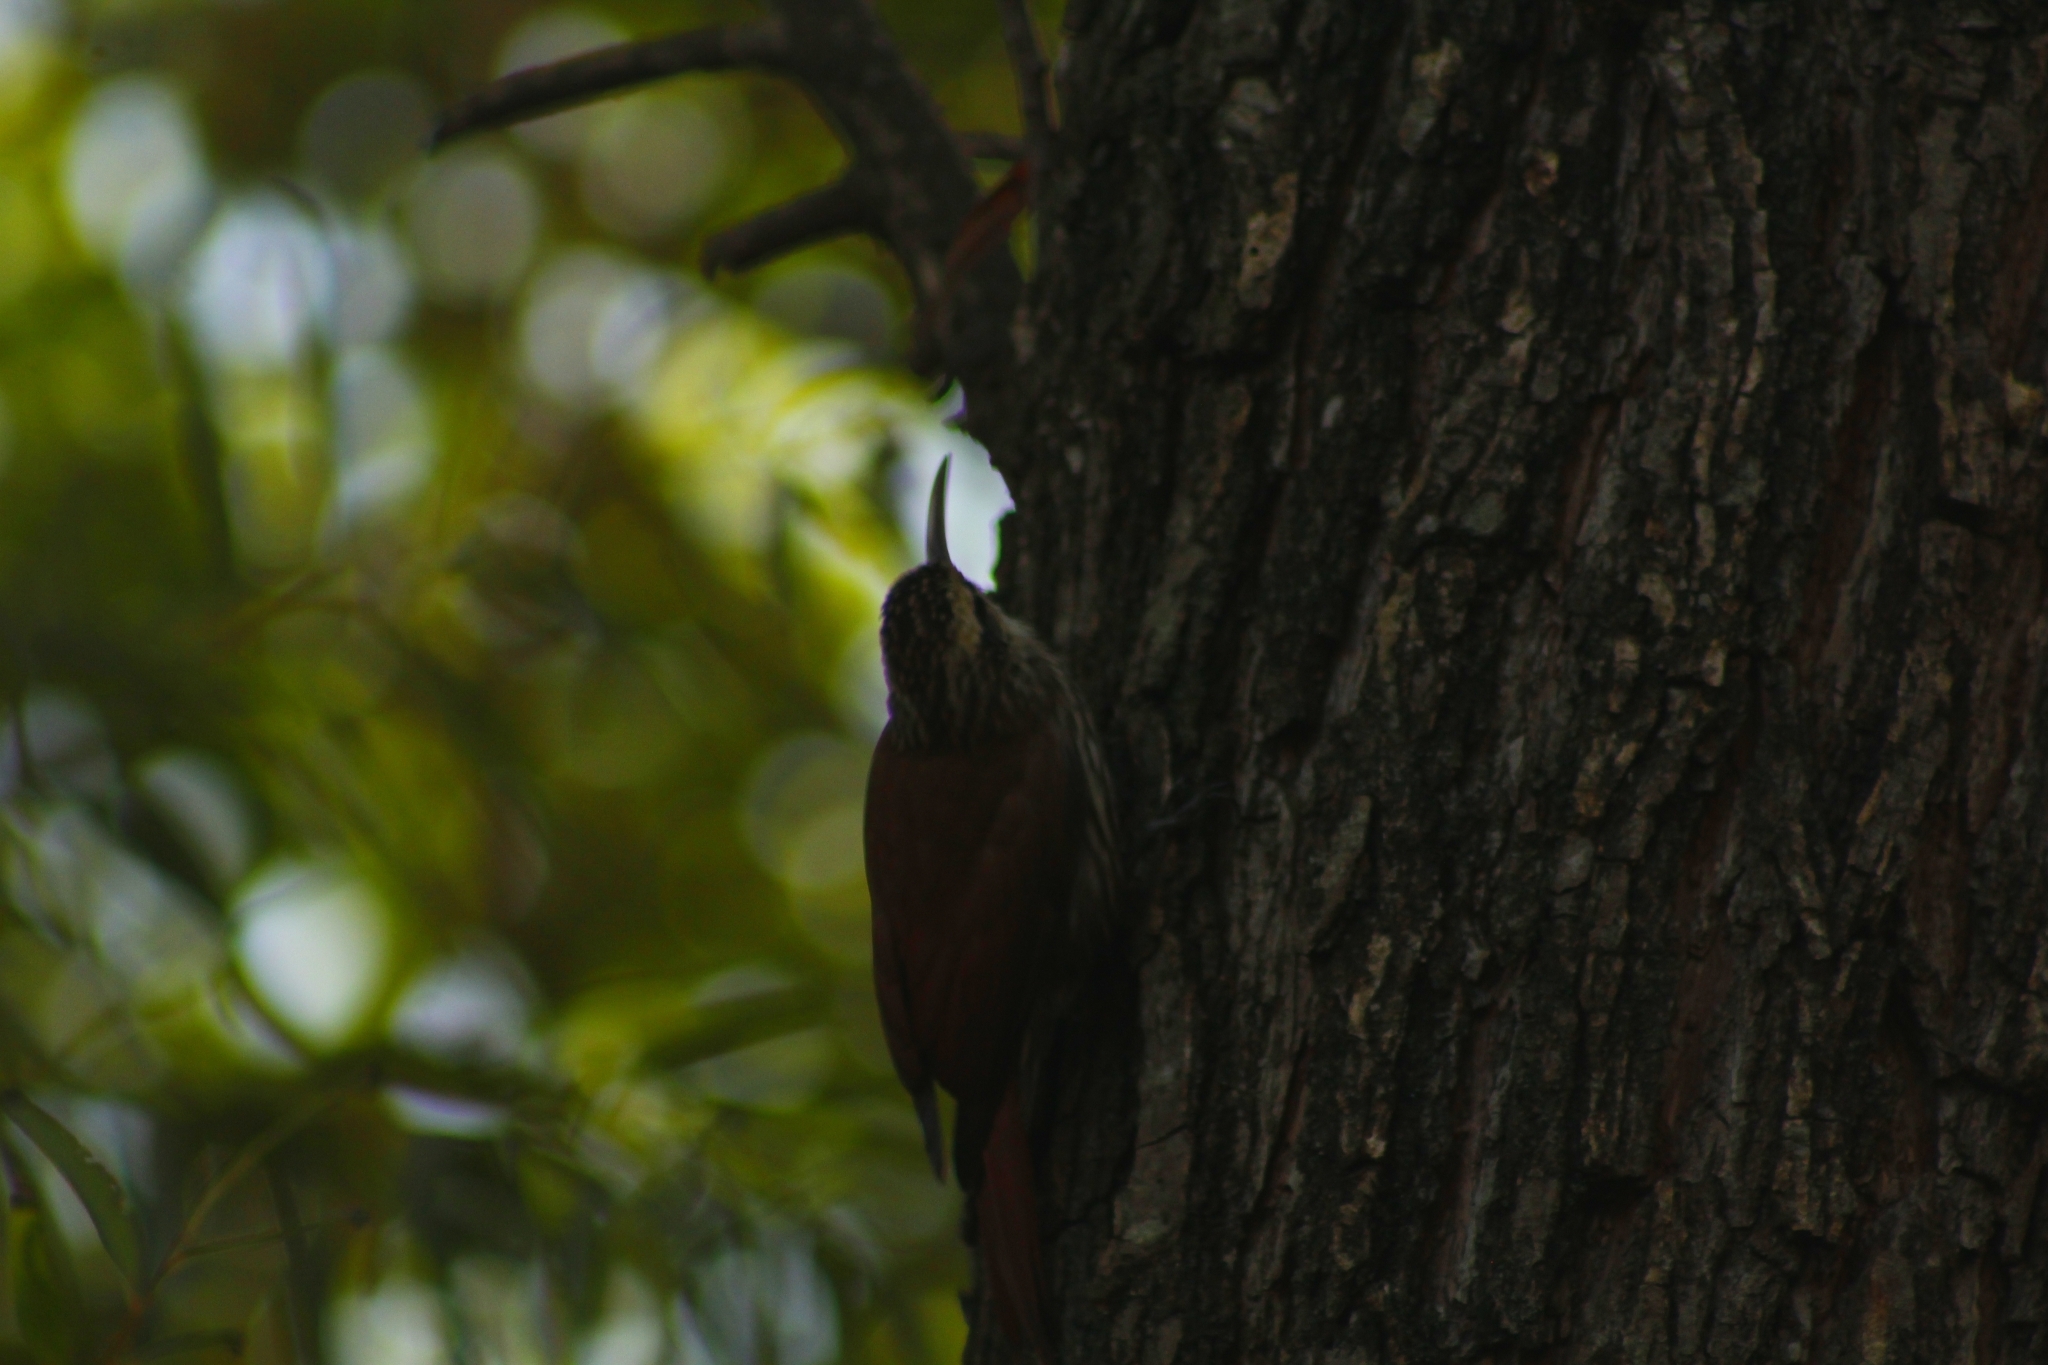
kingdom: Animalia
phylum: Chordata
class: Aves
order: Passeriformes
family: Furnariidae
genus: Lepidocolaptes
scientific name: Lepidocolaptes angustirostris
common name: Narrow-billed woodcreeper
